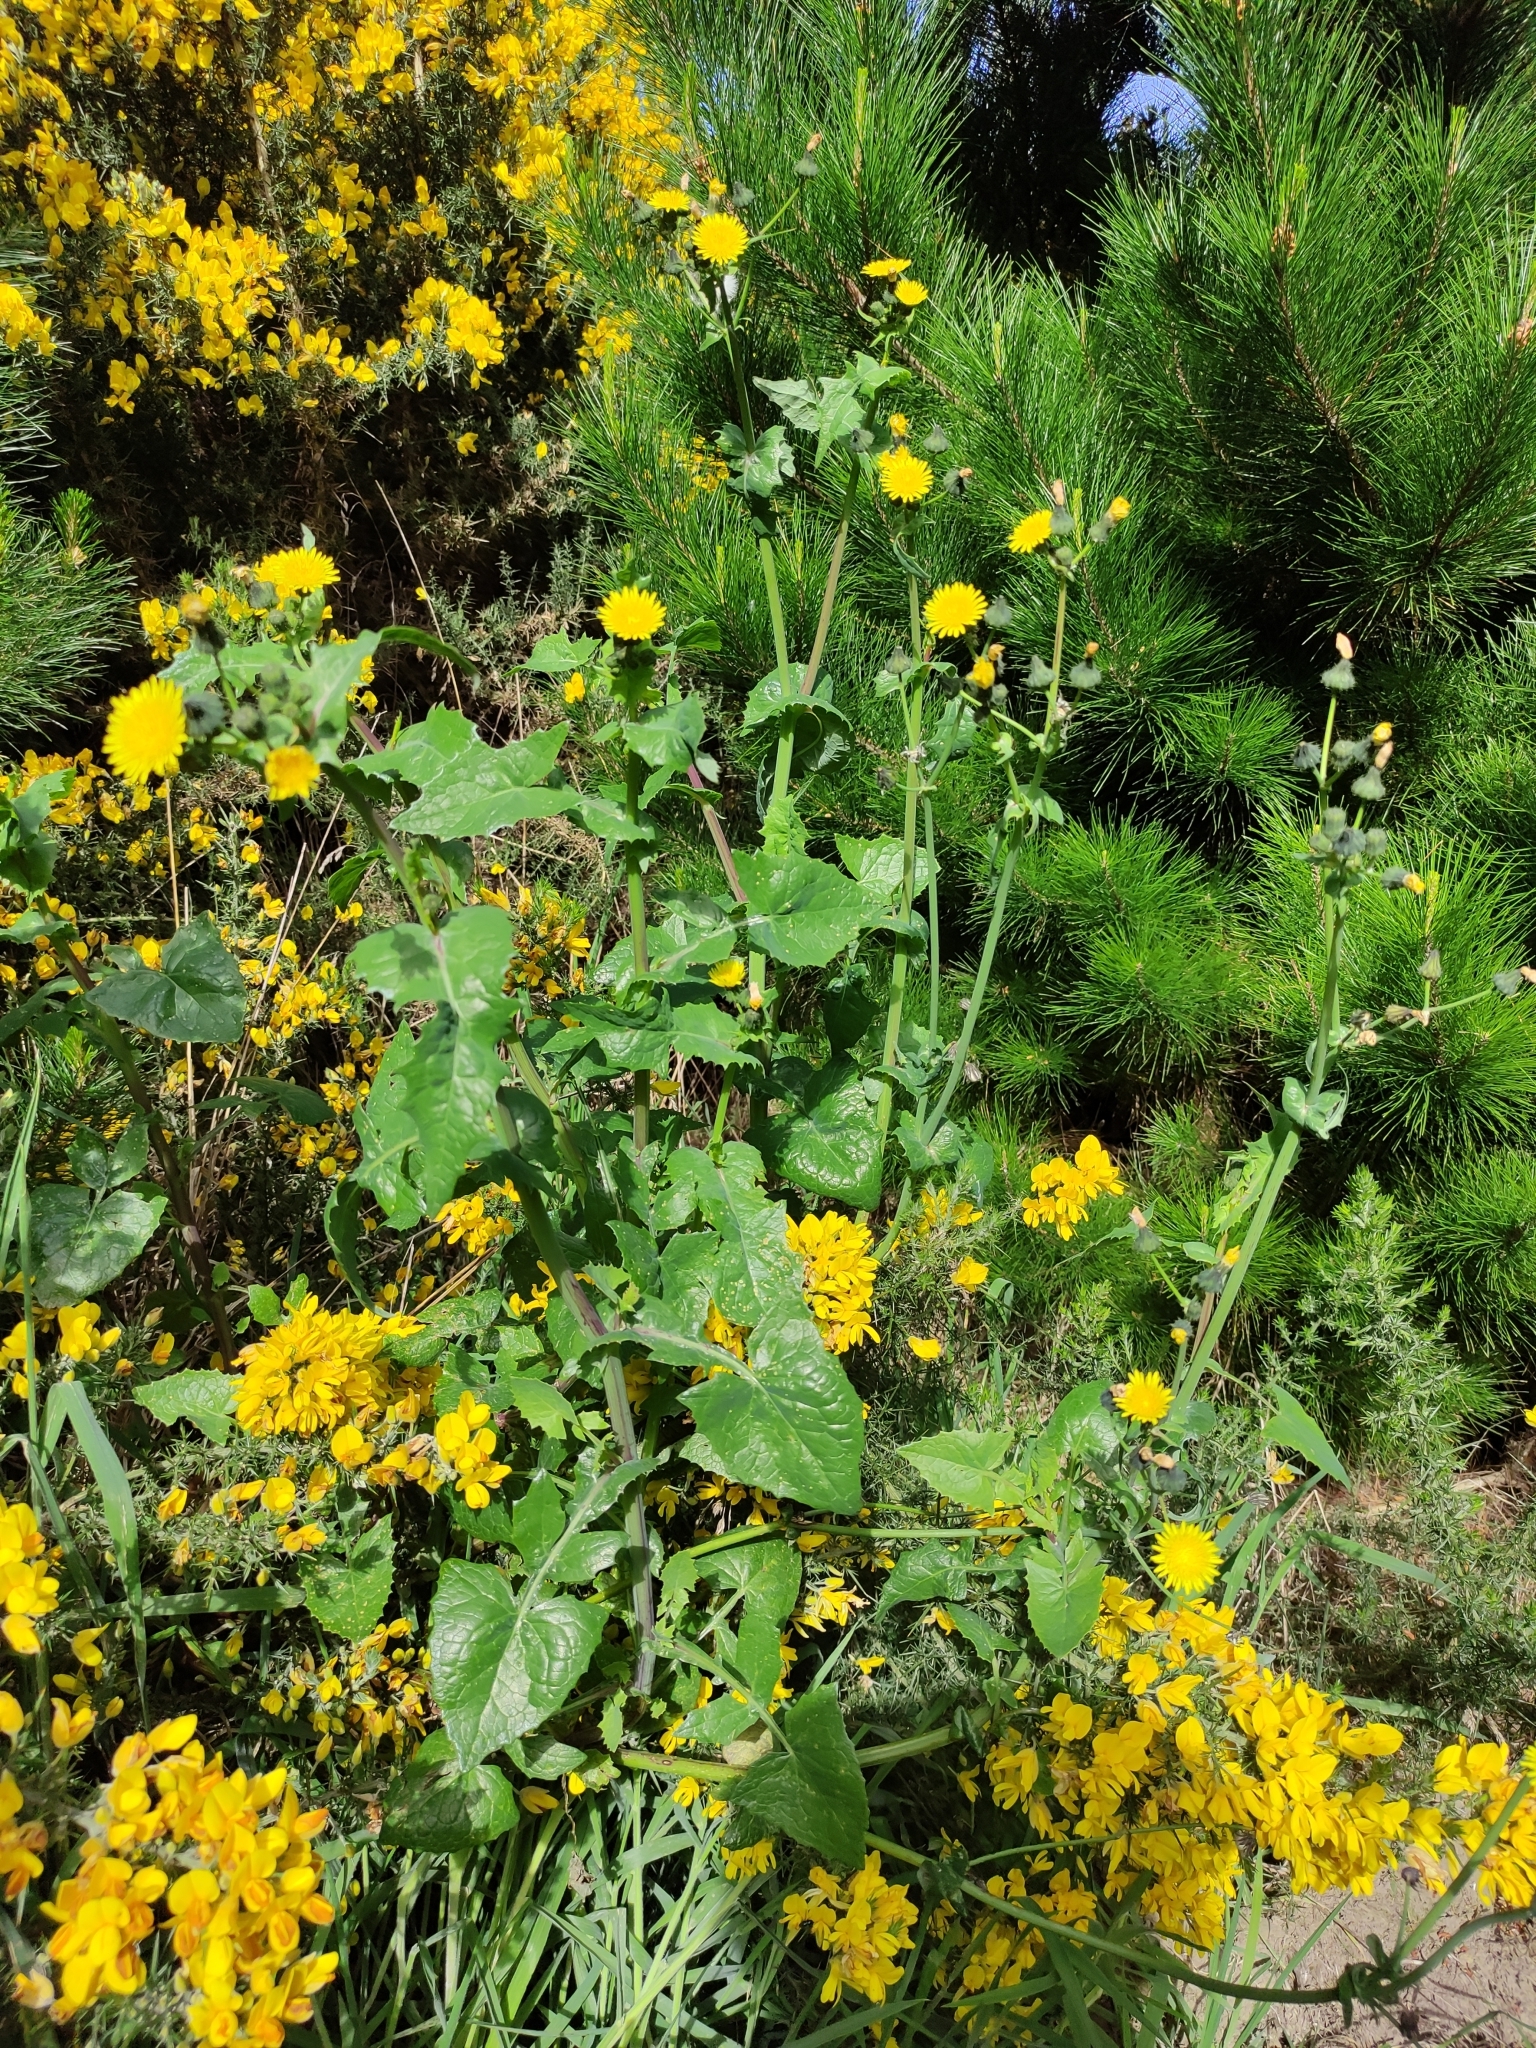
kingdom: Plantae
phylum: Tracheophyta
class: Magnoliopsida
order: Asterales
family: Asteraceae
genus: Sonchus
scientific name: Sonchus oleraceus
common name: Common sowthistle
